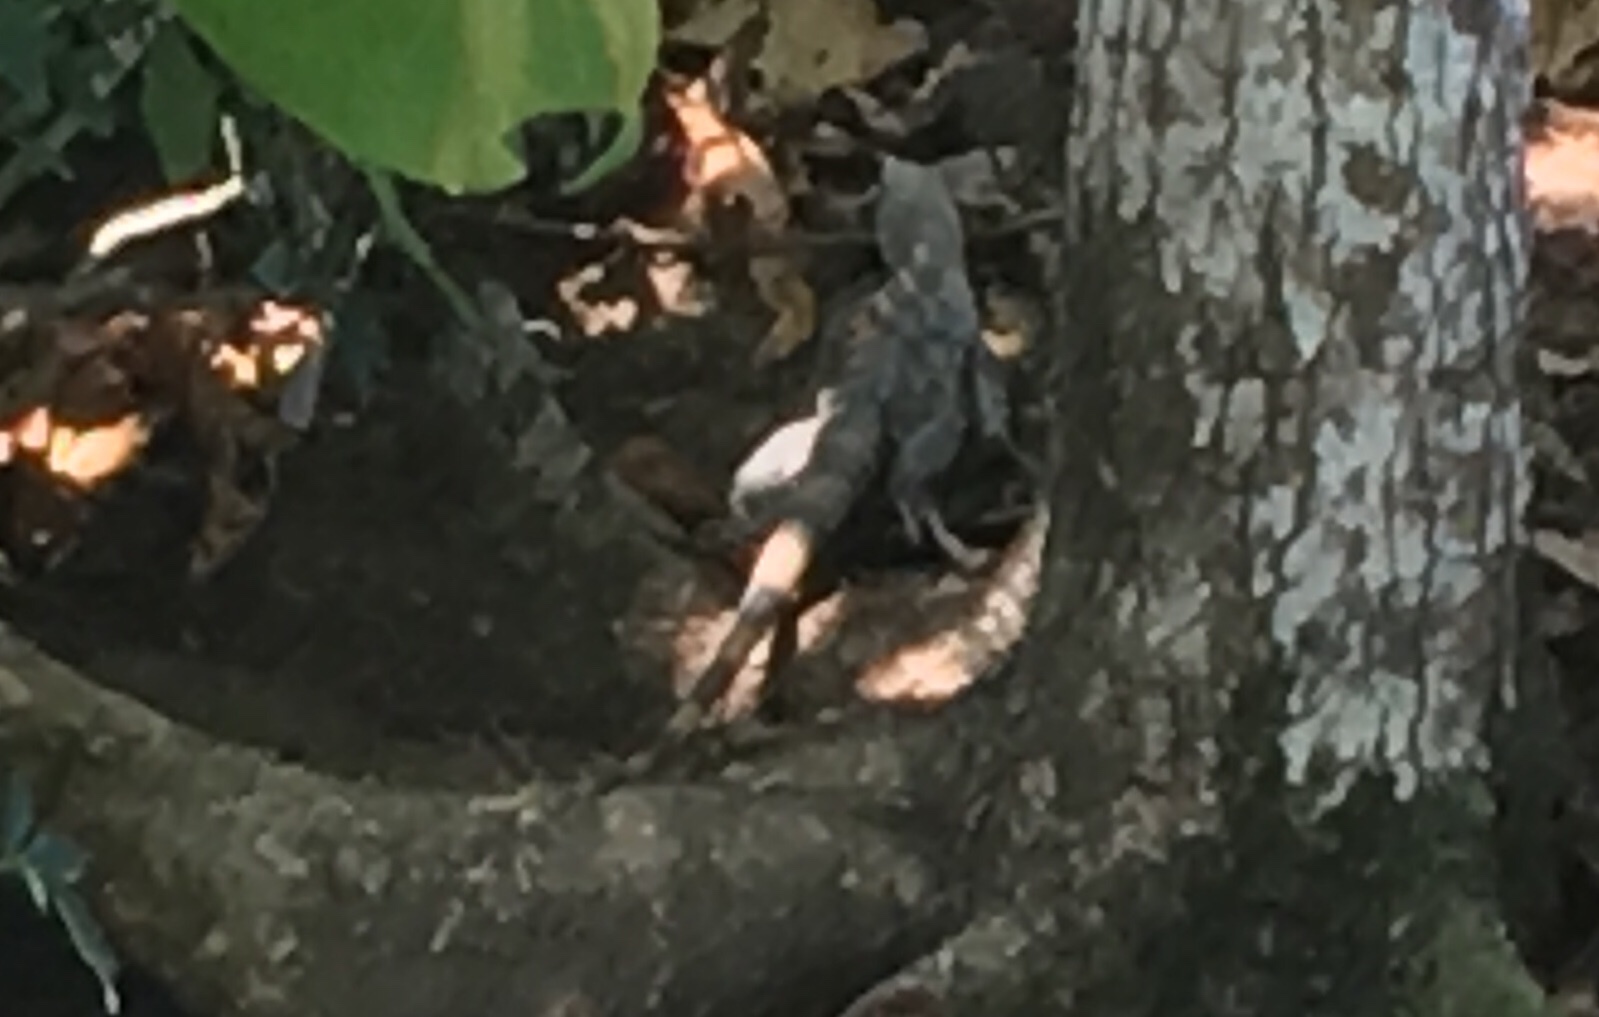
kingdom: Animalia
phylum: Chordata
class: Squamata
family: Iguanidae
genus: Ctenosaura
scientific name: Ctenosaura similis
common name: Black spiny-tailed iguana
